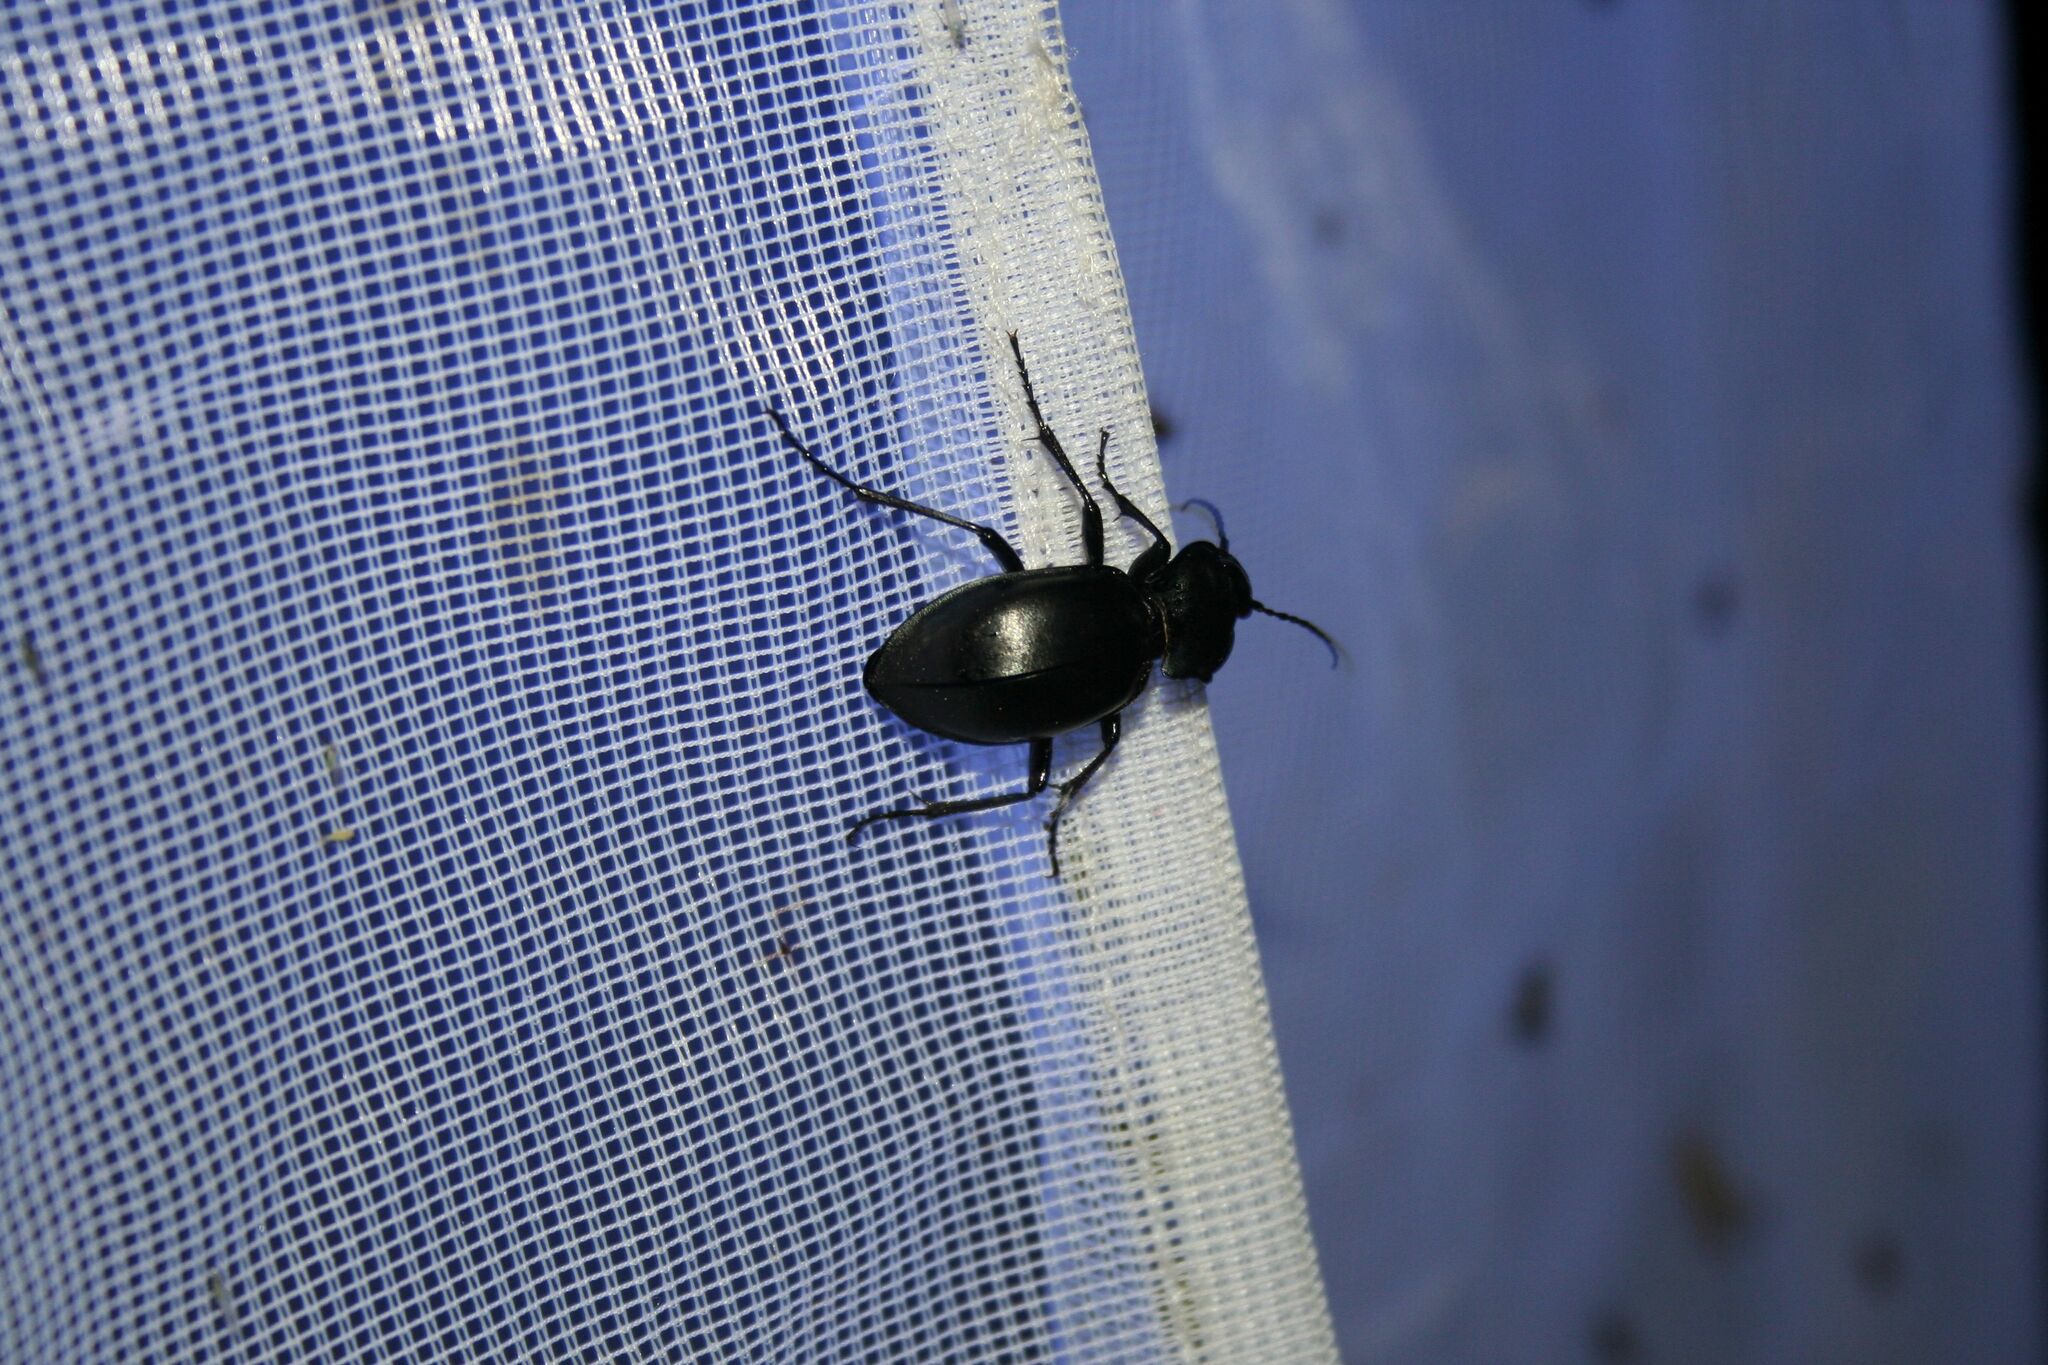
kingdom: Animalia
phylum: Arthropoda
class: Insecta
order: Coleoptera
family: Carabidae
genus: Carabus
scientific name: Carabus glabratus
